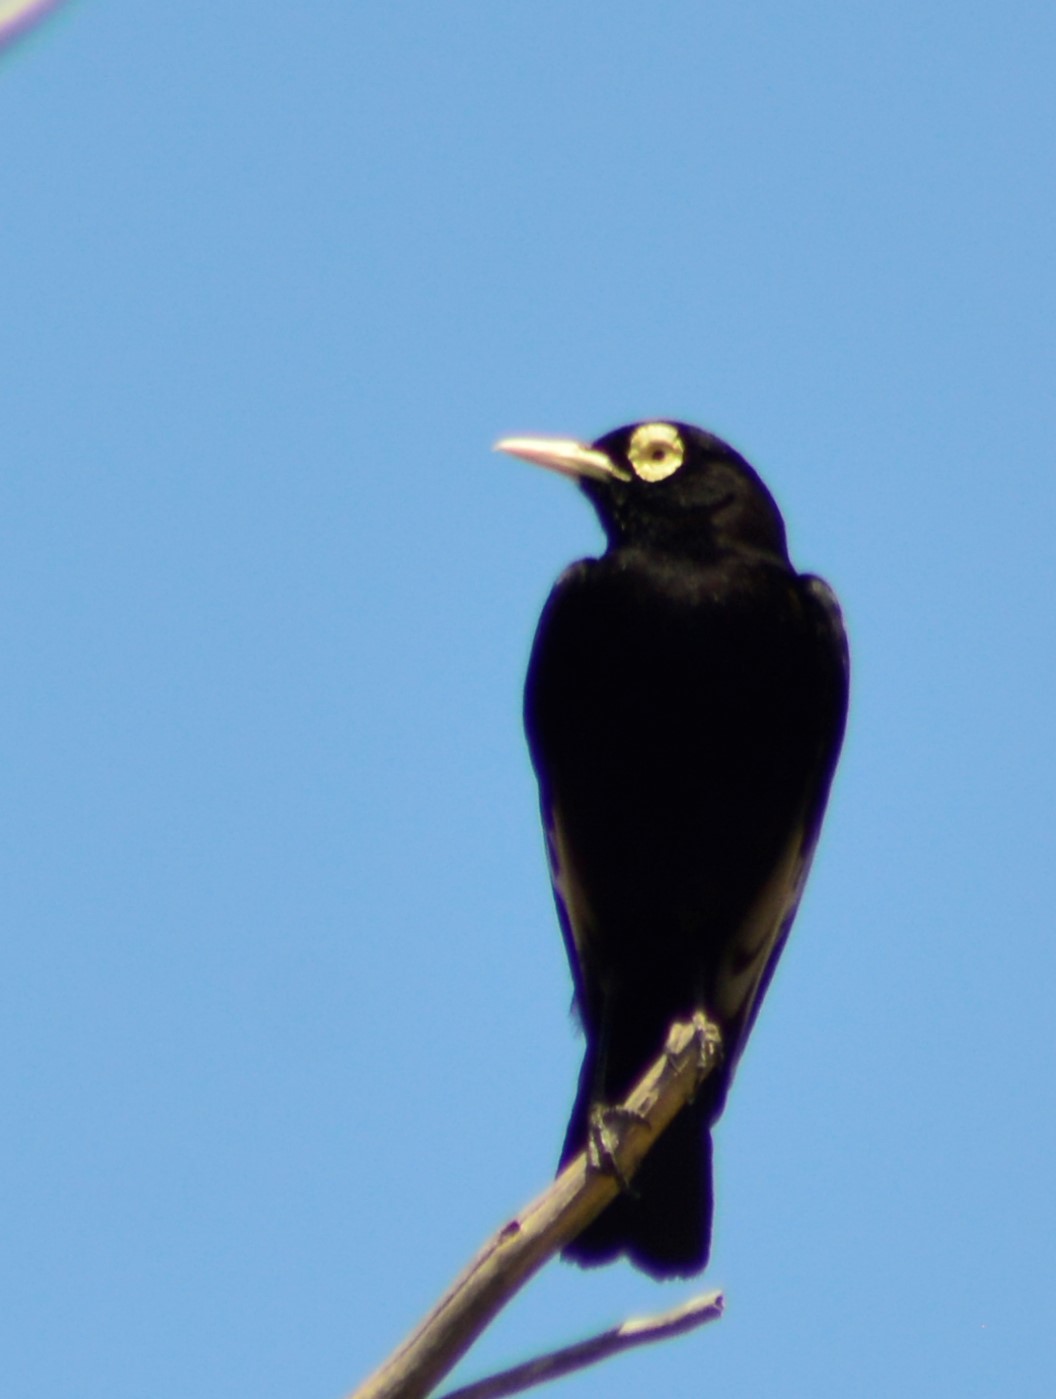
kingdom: Animalia
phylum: Chordata
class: Aves
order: Passeriformes
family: Tyrannidae
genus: Hymenops
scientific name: Hymenops perspicillatus
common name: Spectacled tyrant
